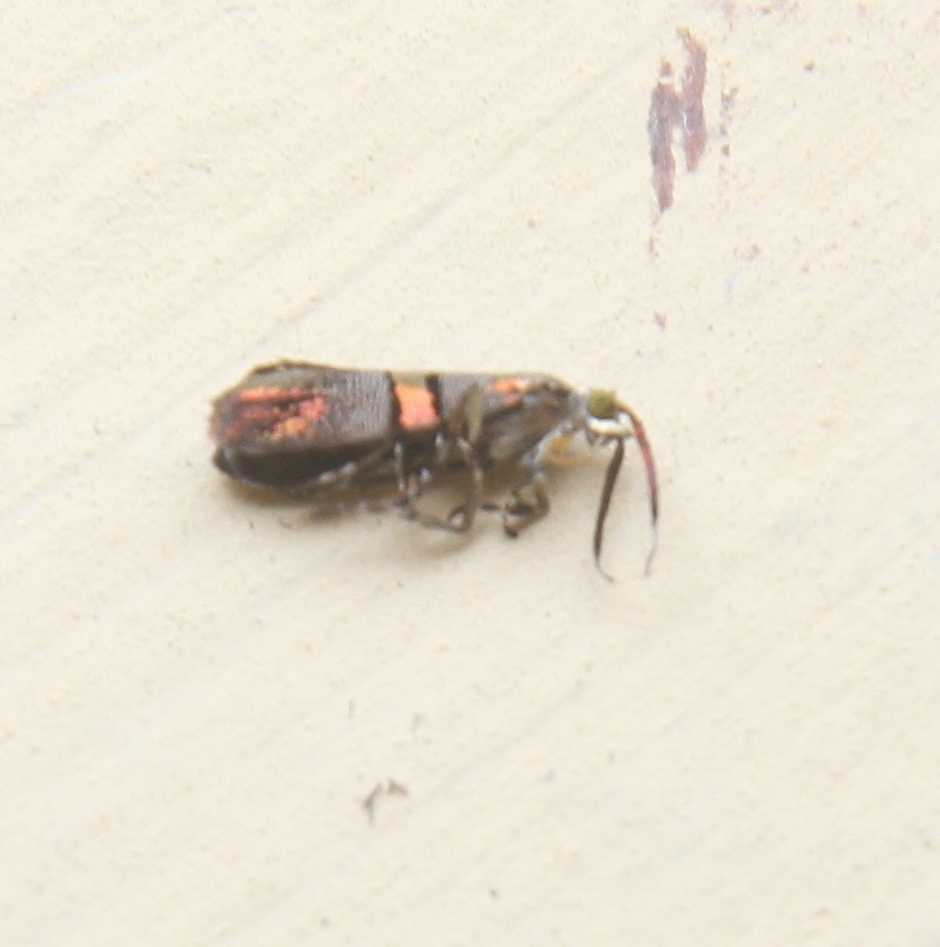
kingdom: Animalia
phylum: Arthropoda
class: Insecta
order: Lepidoptera
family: Choreutidae
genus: Tortyra
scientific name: Tortyra auriferalis
